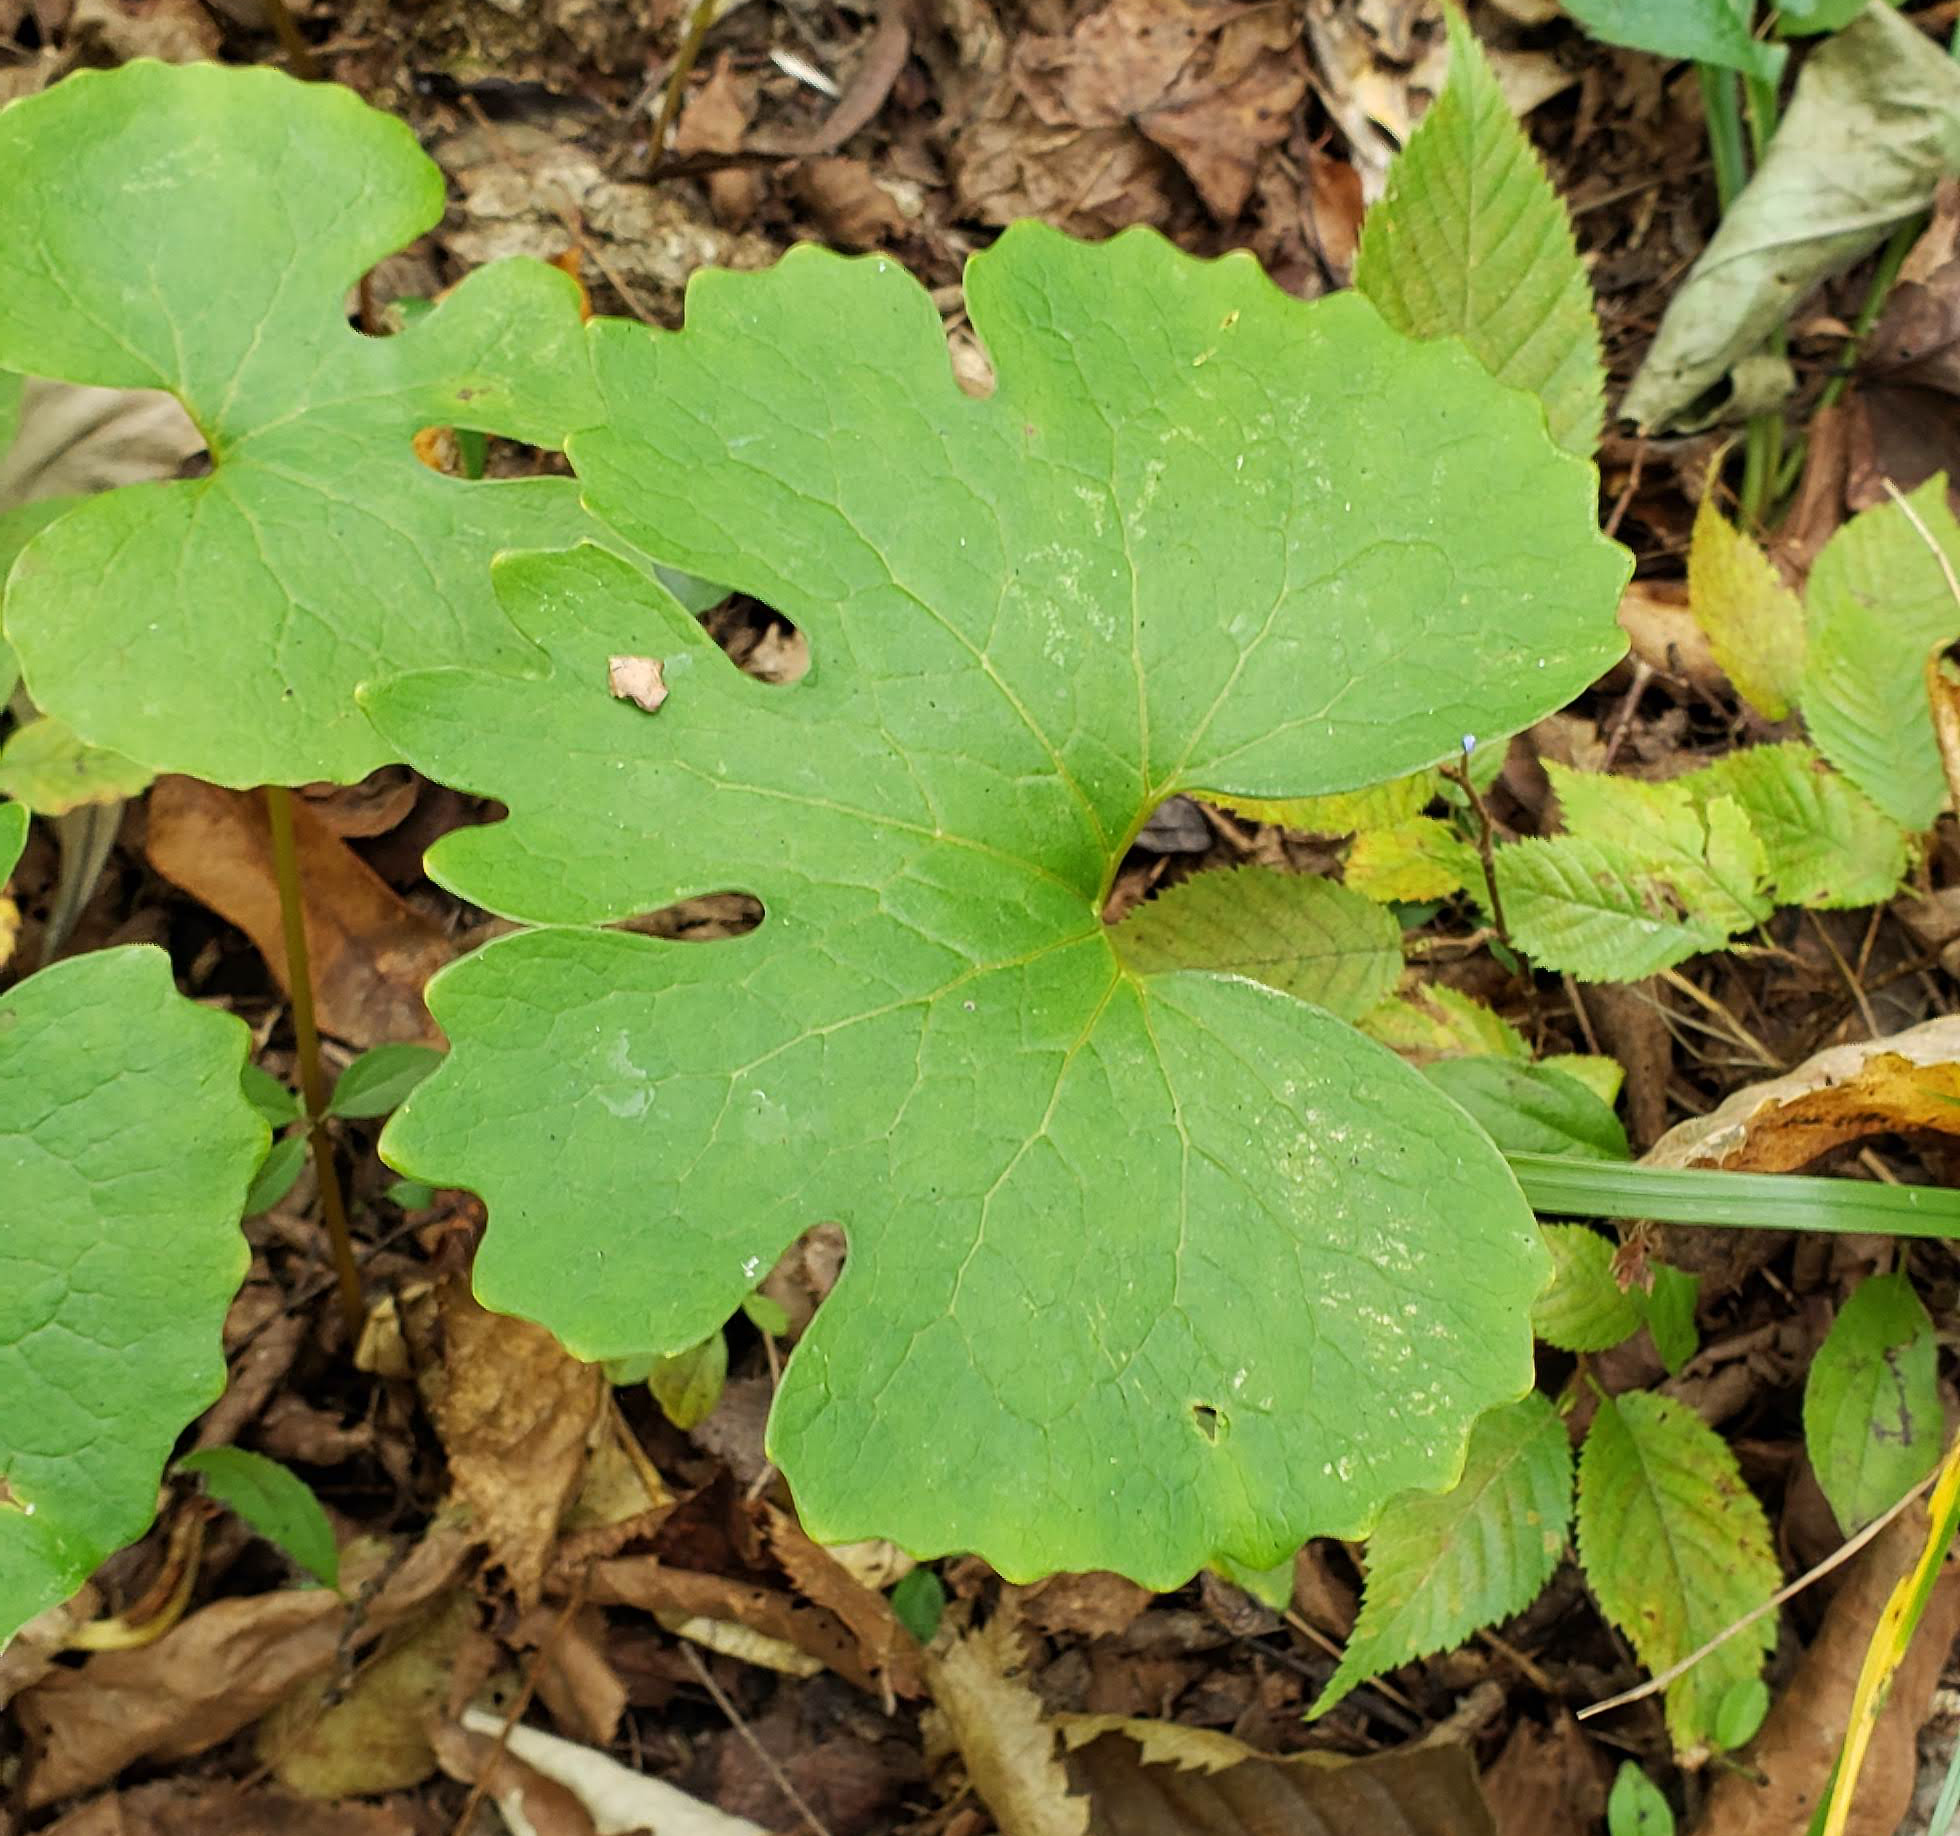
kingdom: Plantae
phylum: Tracheophyta
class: Magnoliopsida
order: Ranunculales
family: Papaveraceae
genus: Sanguinaria
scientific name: Sanguinaria canadensis
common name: Bloodroot
